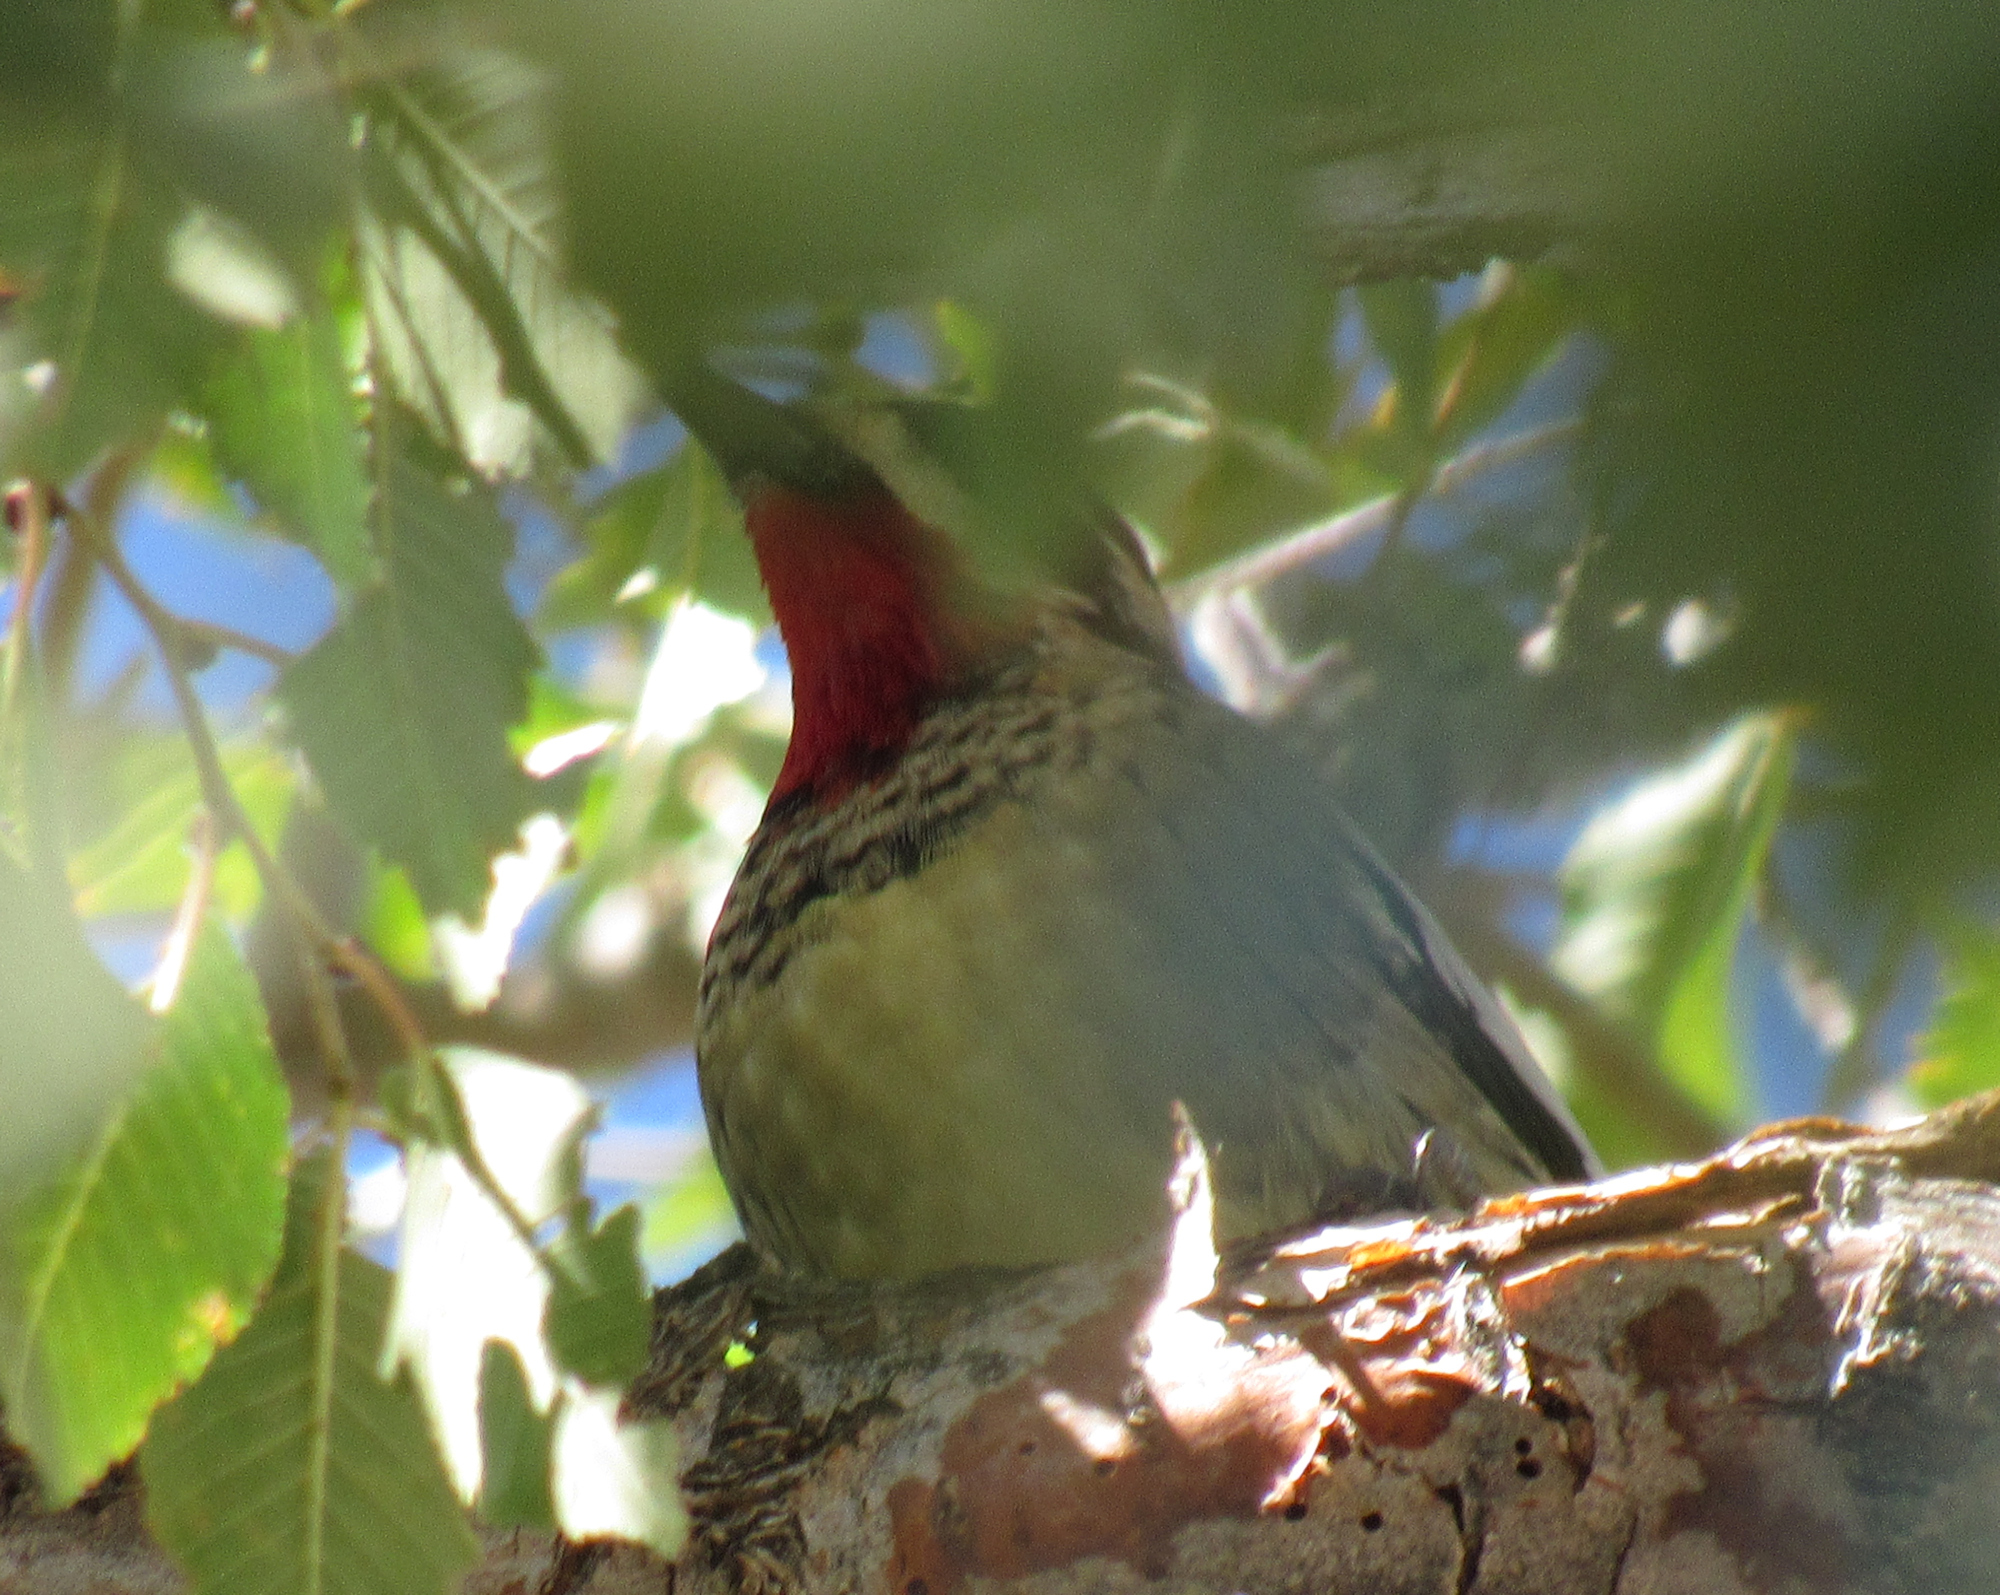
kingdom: Animalia
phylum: Chordata
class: Aves
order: Piciformes
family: Picidae
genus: Sphyrapicus
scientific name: Sphyrapicus nuchalis
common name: Red-naped sapsucker
